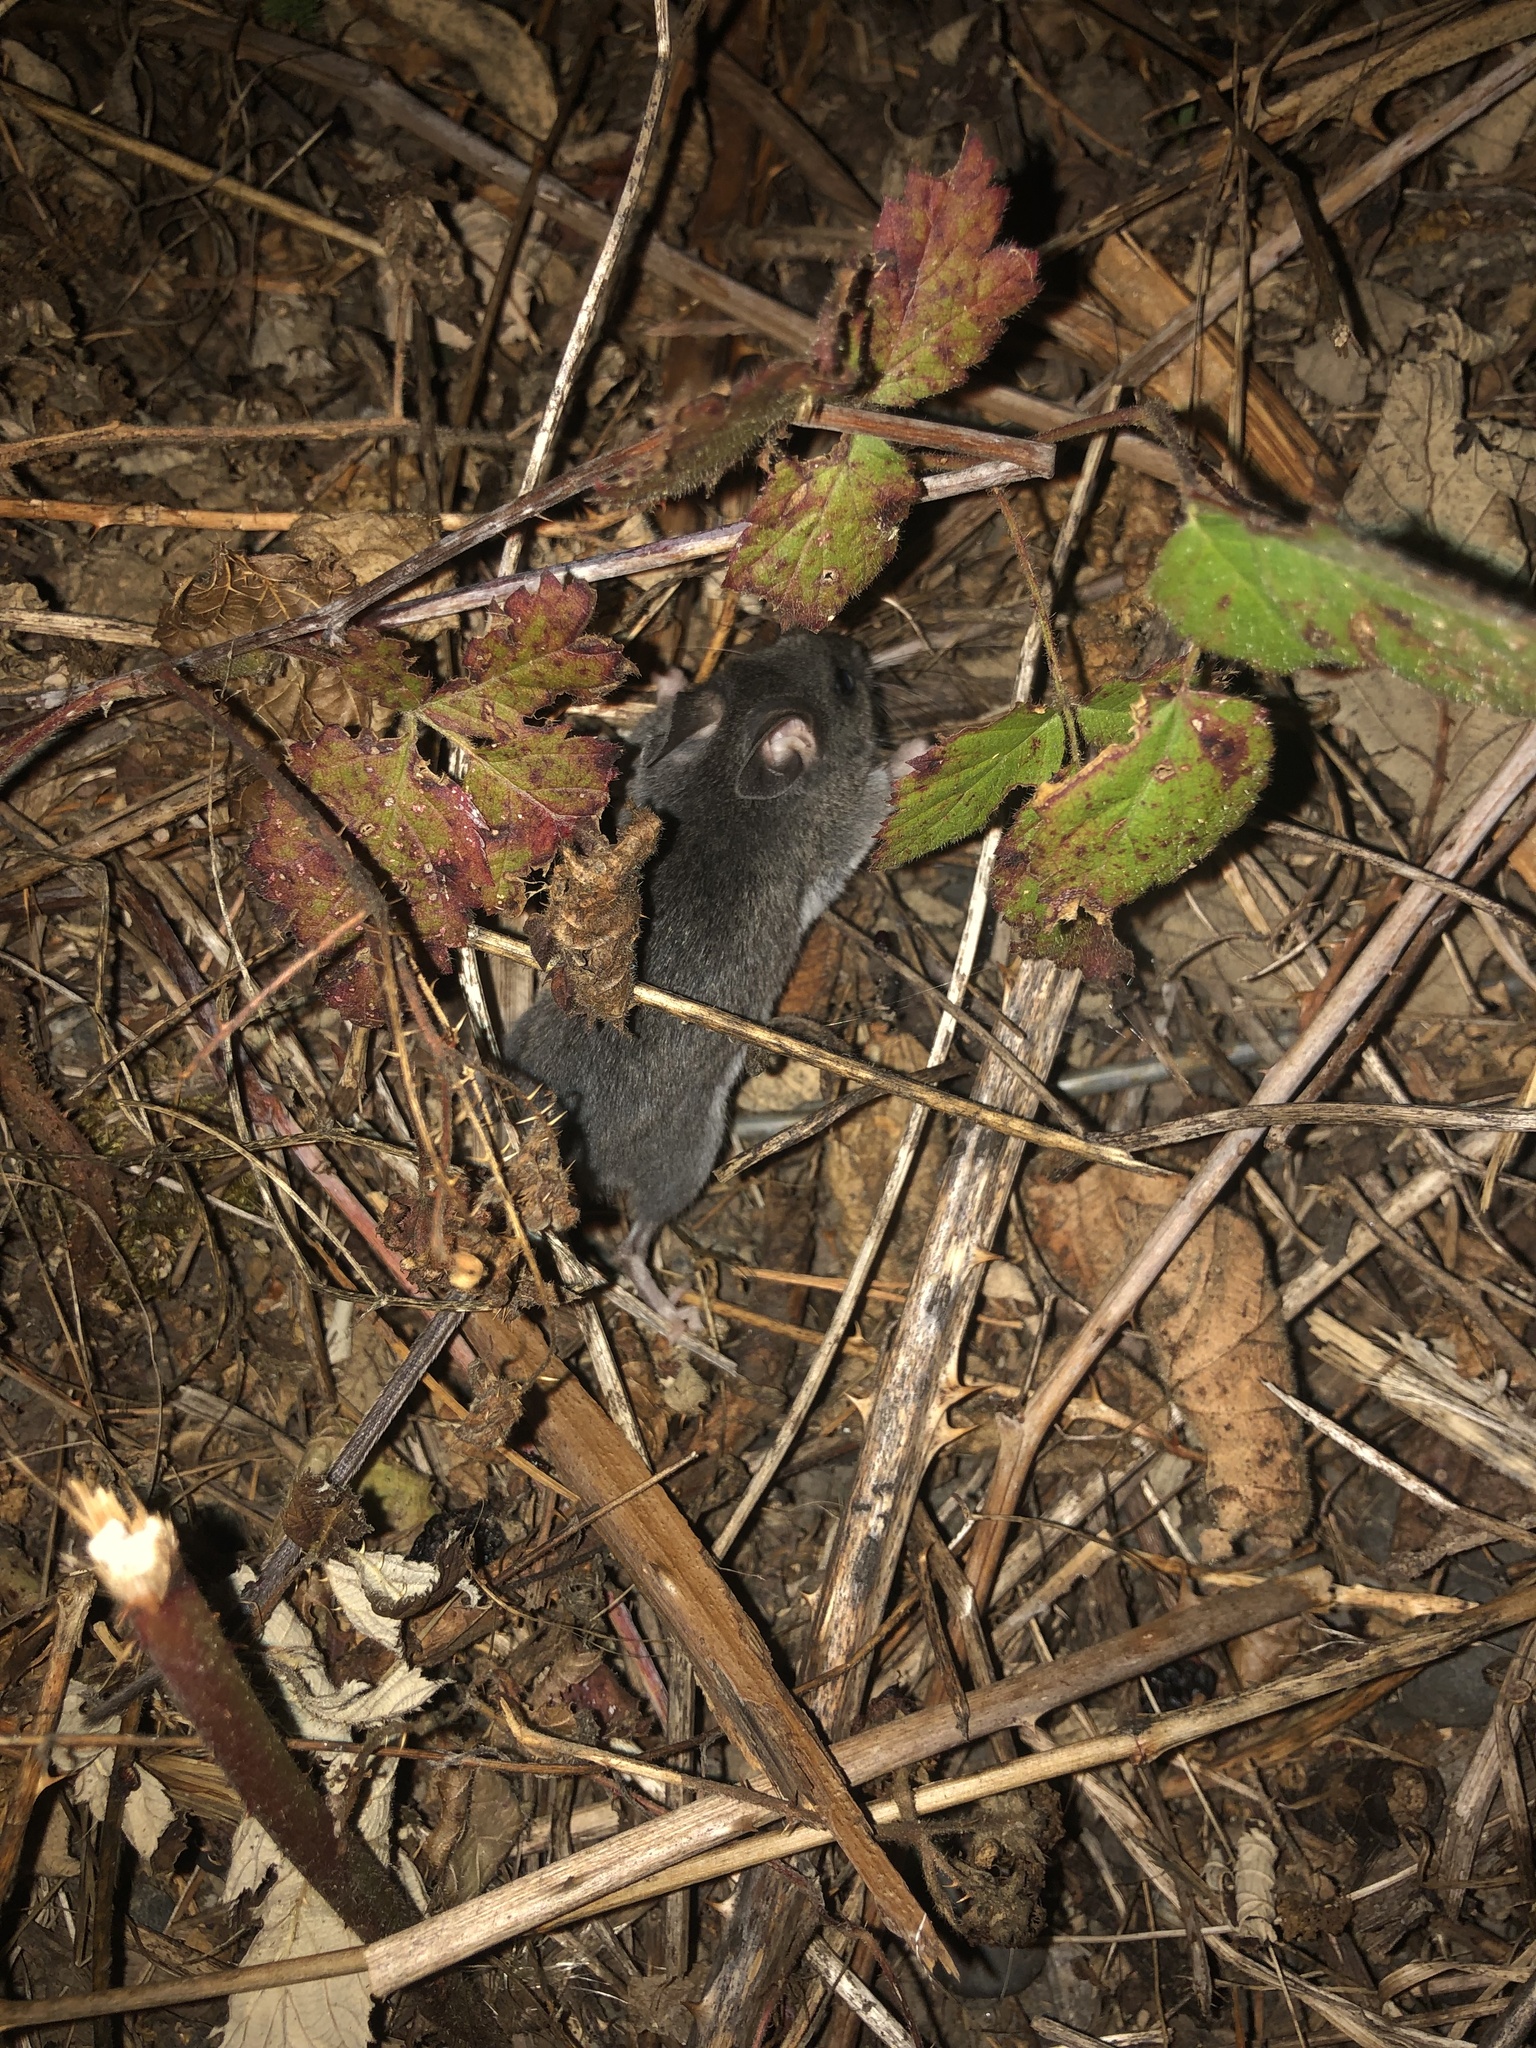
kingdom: Animalia
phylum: Chordata
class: Mammalia
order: Rodentia
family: Cricetidae
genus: Peromyscus
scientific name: Peromyscus maniculatus
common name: Deer mouse
